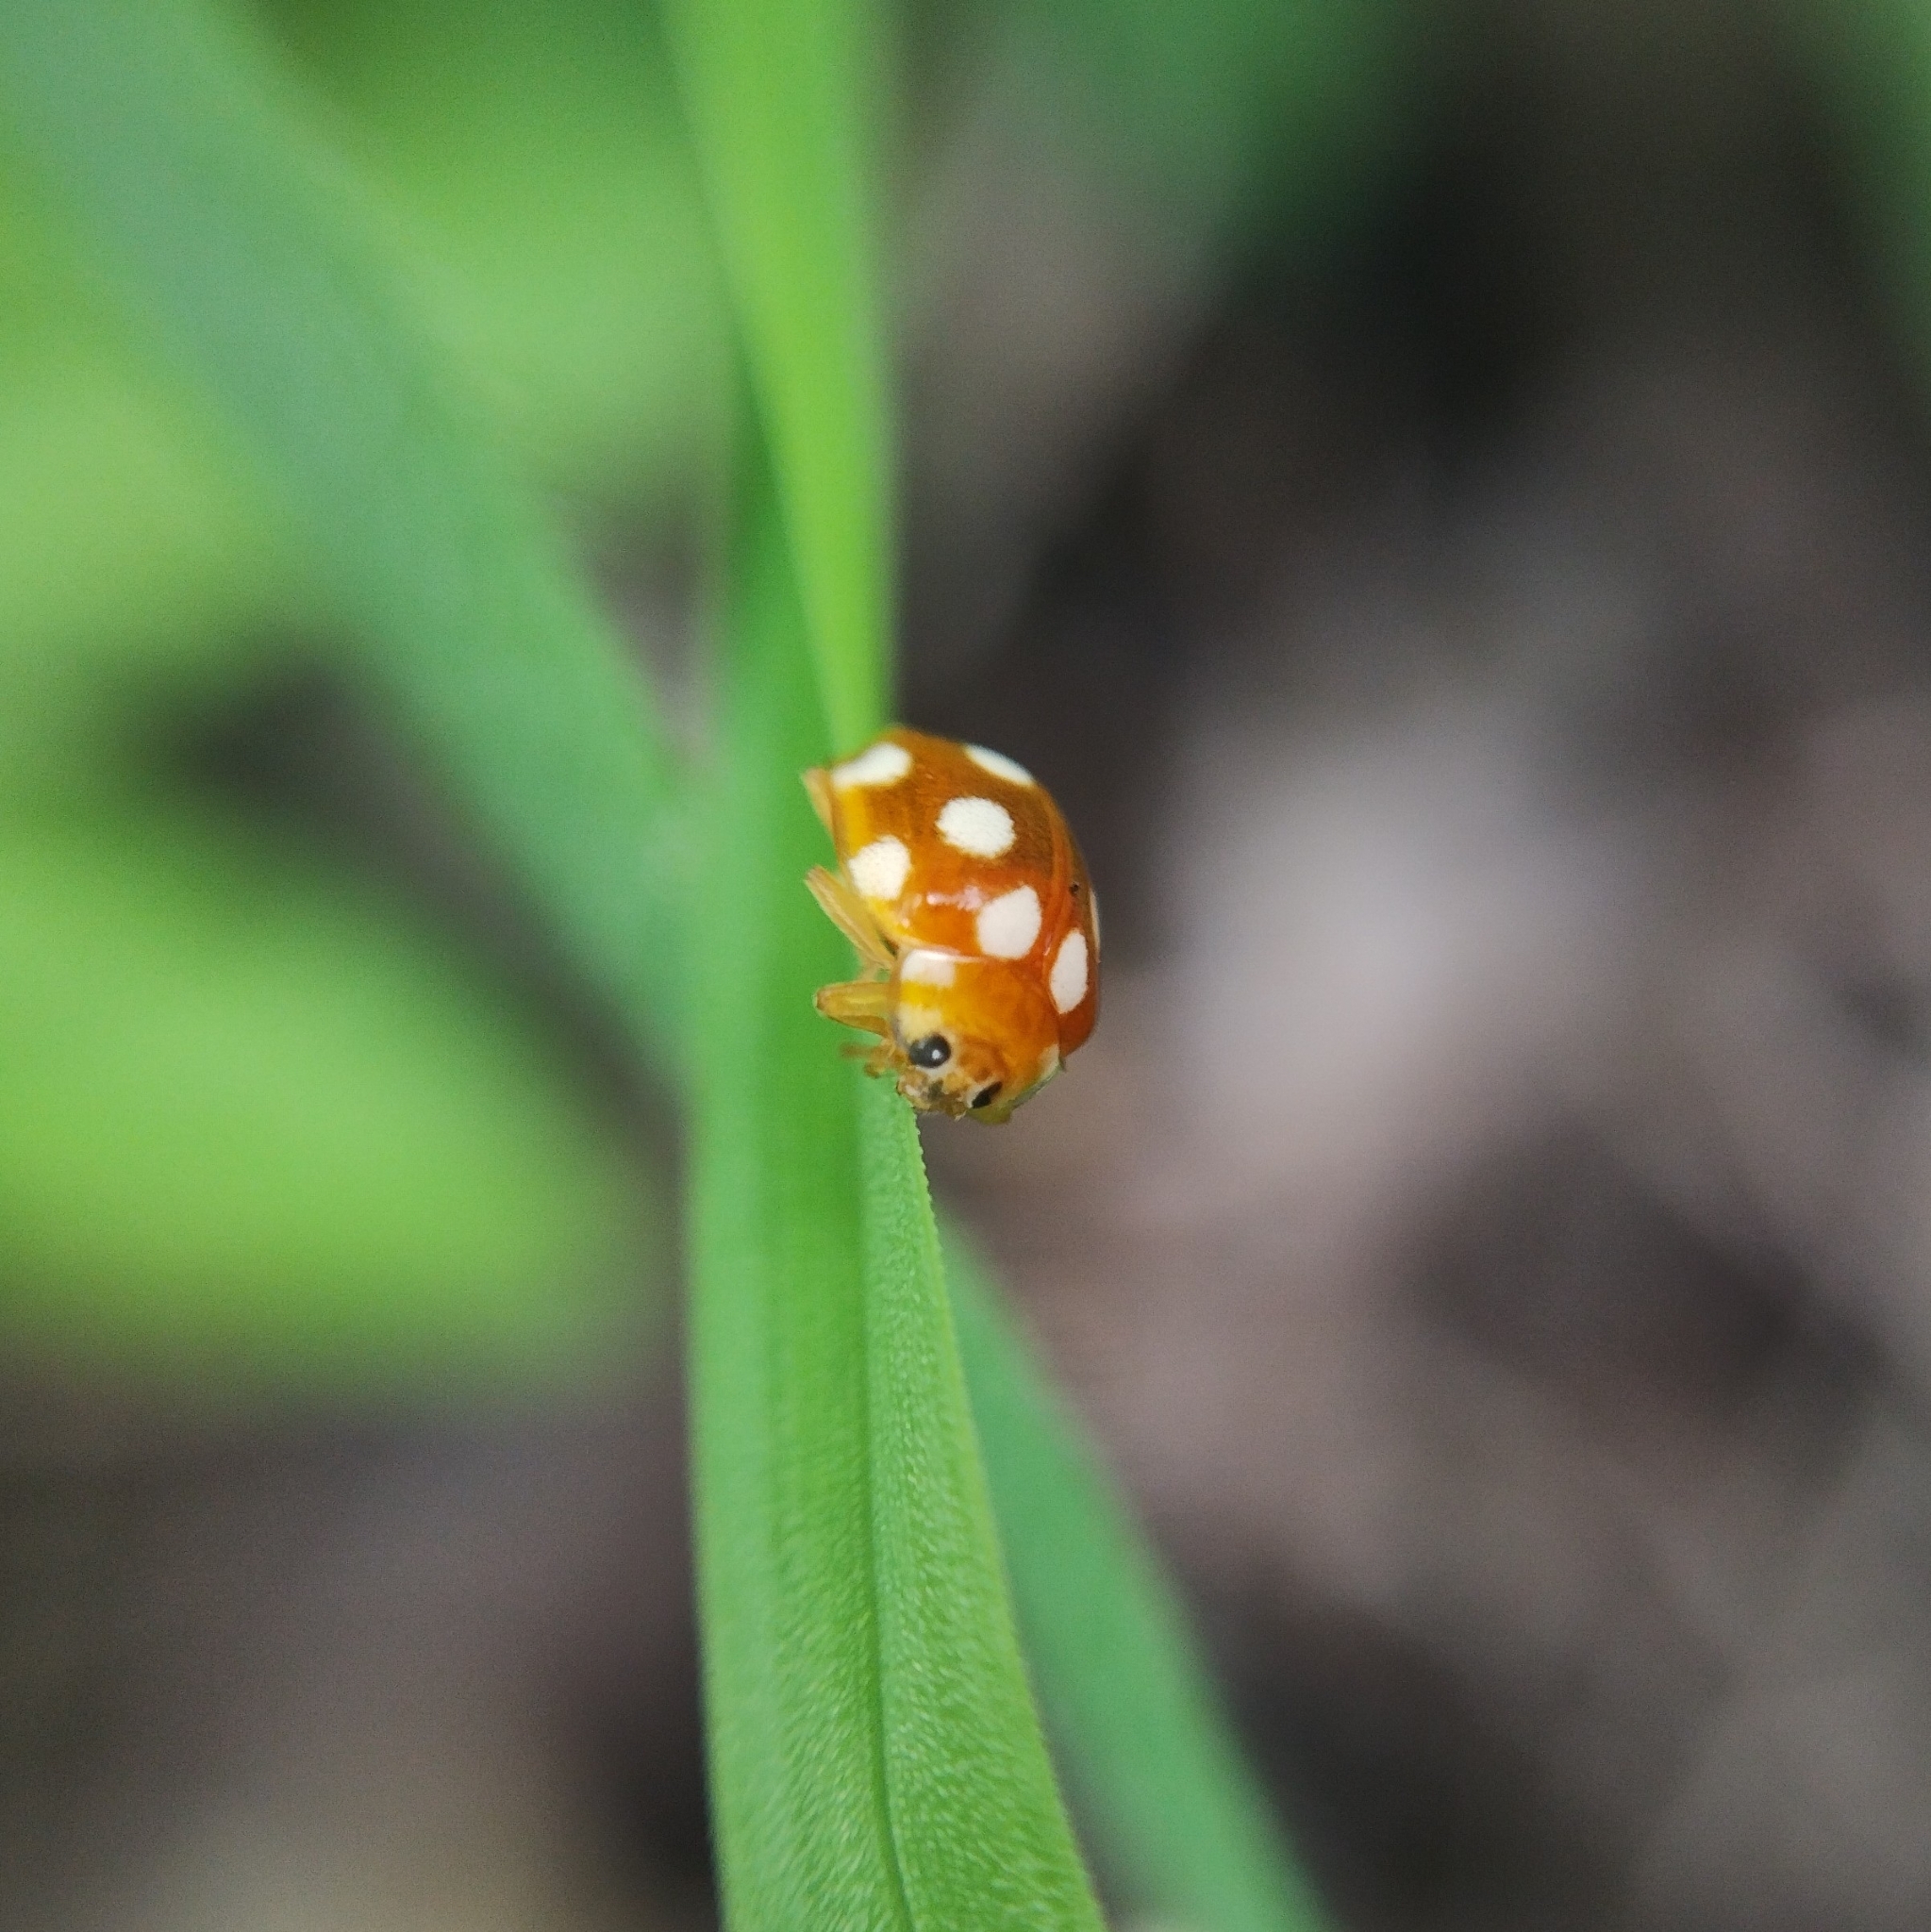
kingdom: Animalia
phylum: Arthropoda
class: Insecta
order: Coleoptera
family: Coccinellidae
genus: Vibidia
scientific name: Vibidia duodecimguttata
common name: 12-spot ladybird
